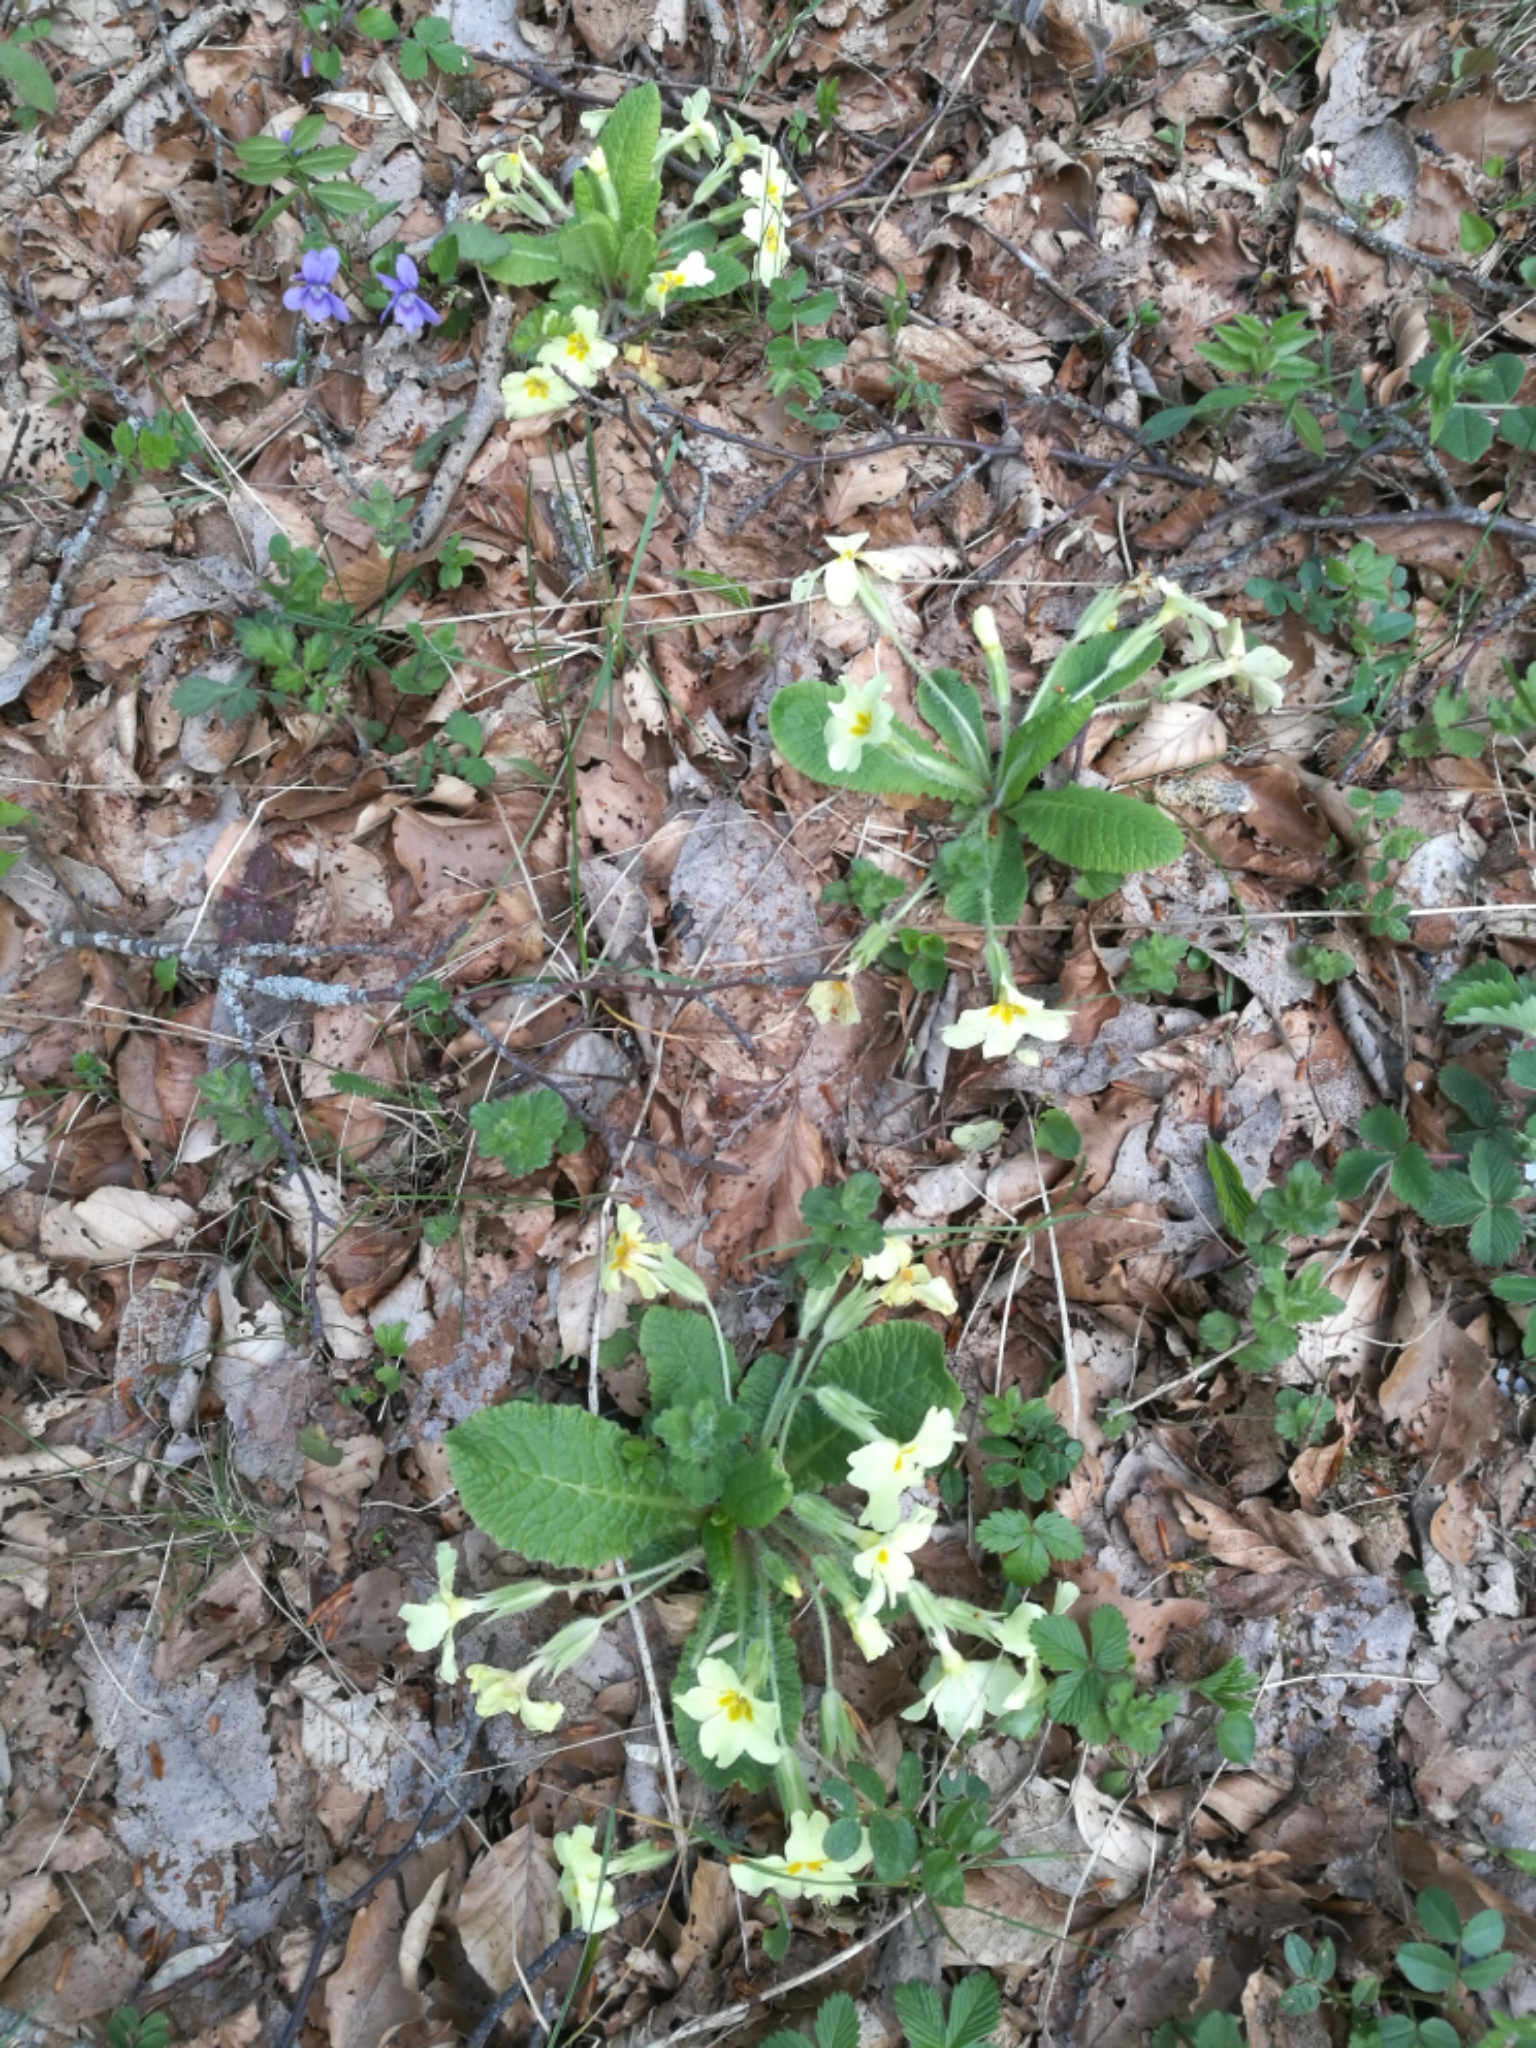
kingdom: Plantae
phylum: Tracheophyta
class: Magnoliopsida
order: Ericales
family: Primulaceae
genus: Primula
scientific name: Primula vulgaris
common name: Primrose
